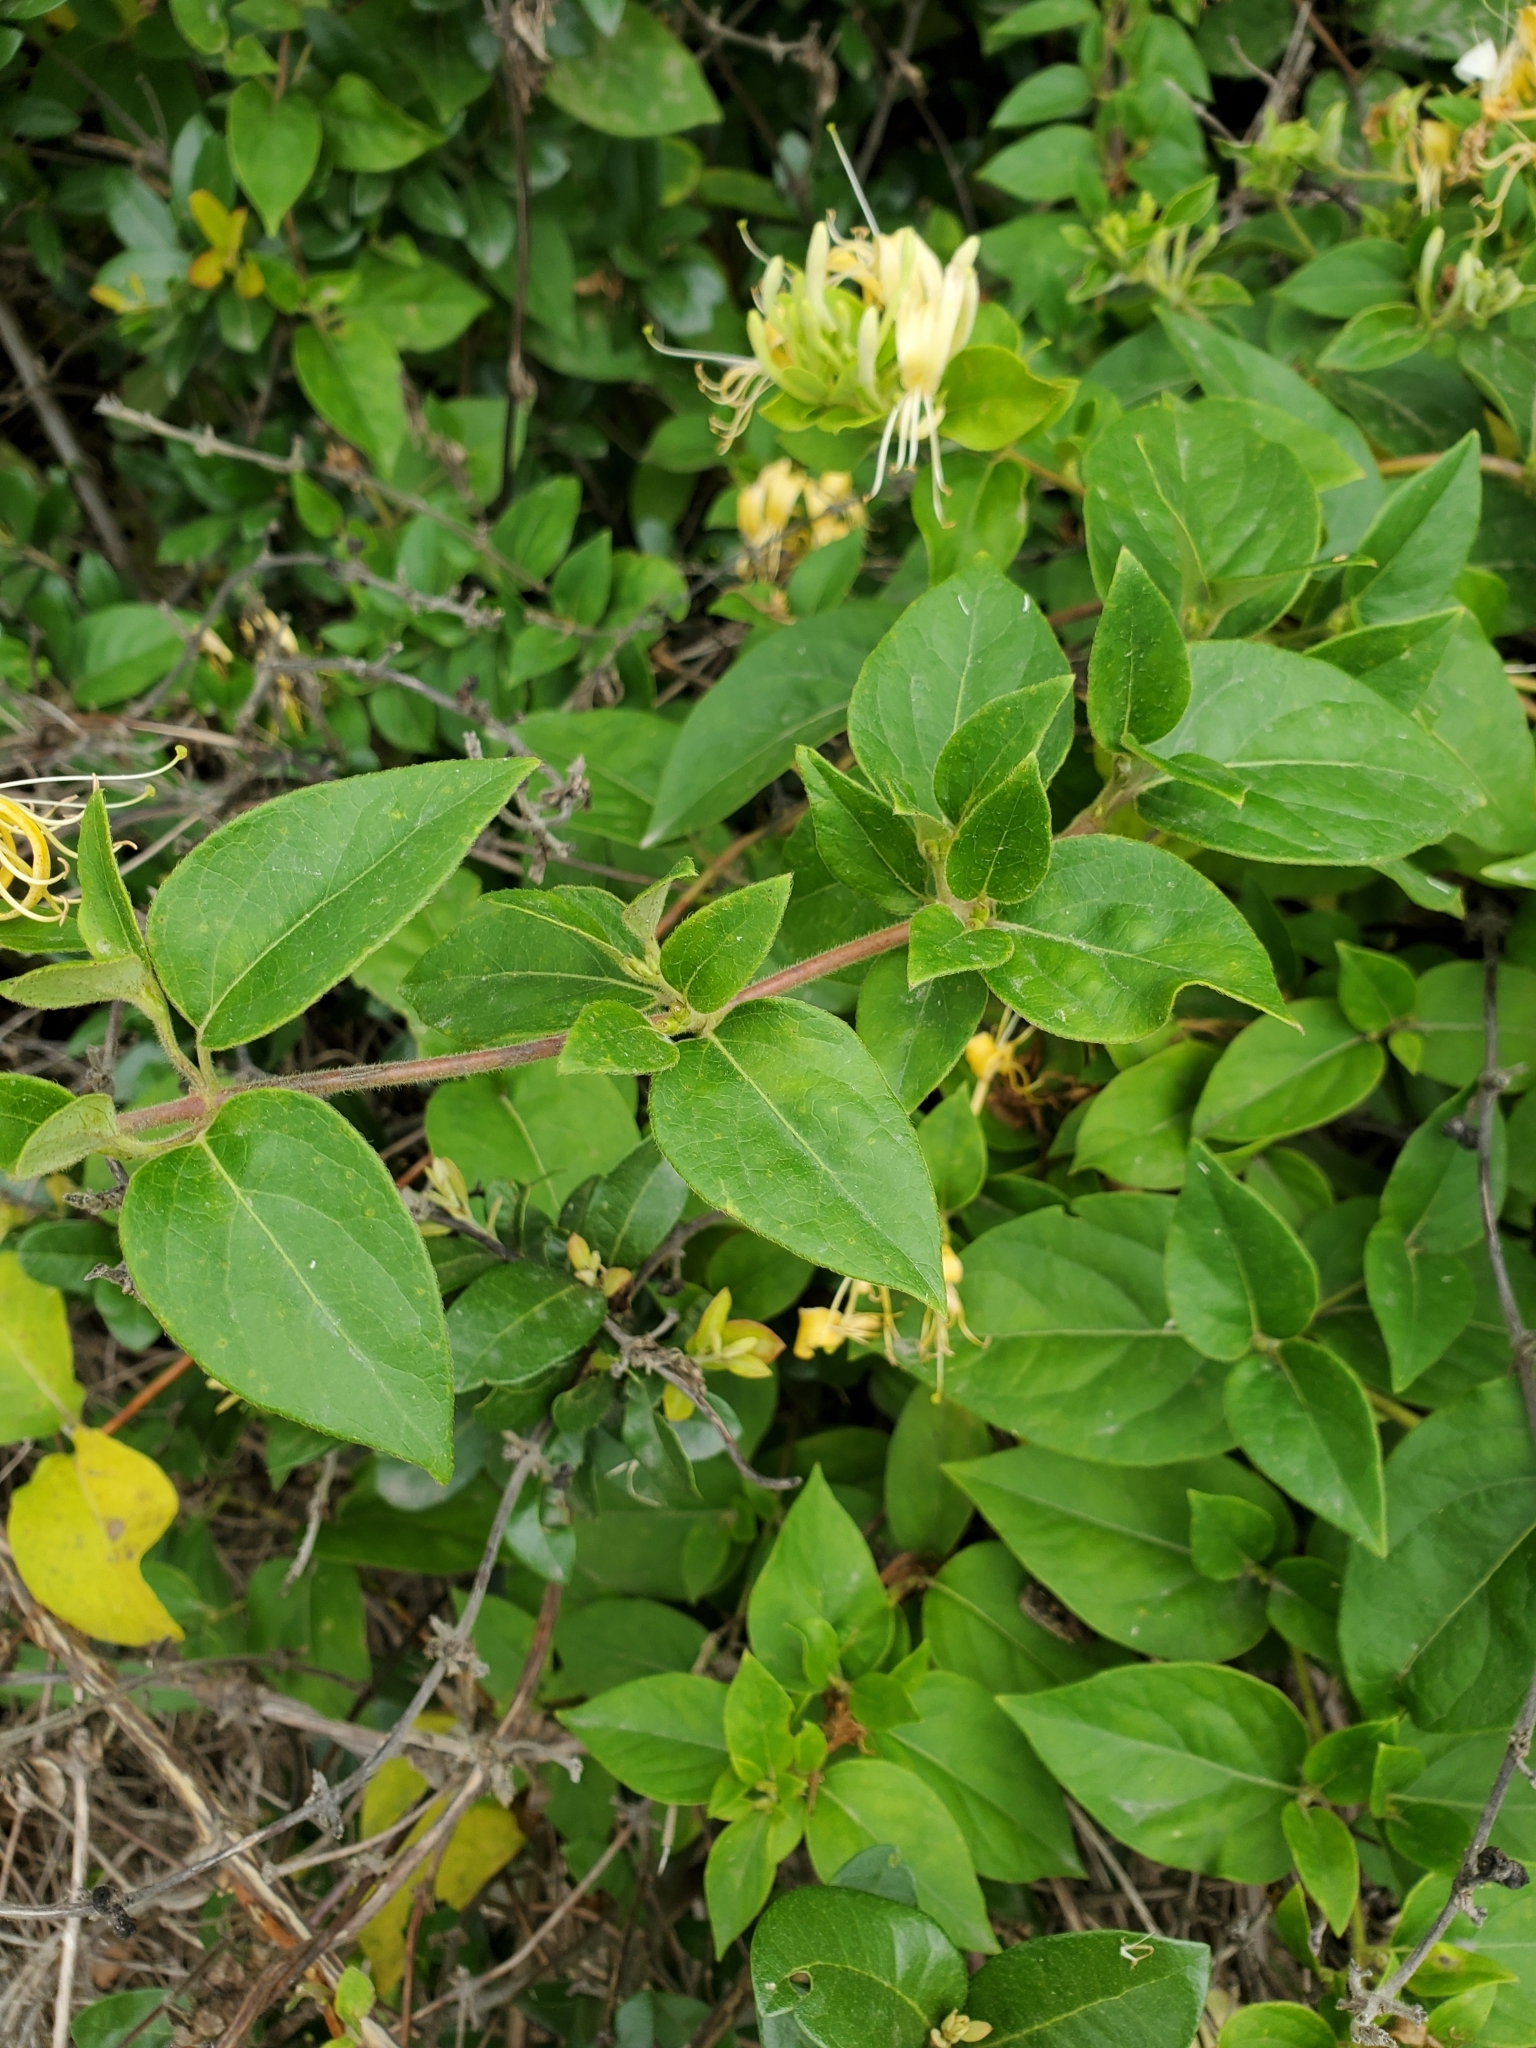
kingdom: Plantae
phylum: Tracheophyta
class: Magnoliopsida
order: Dipsacales
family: Caprifoliaceae
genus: Lonicera
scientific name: Lonicera japonica
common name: Japanese honeysuckle
